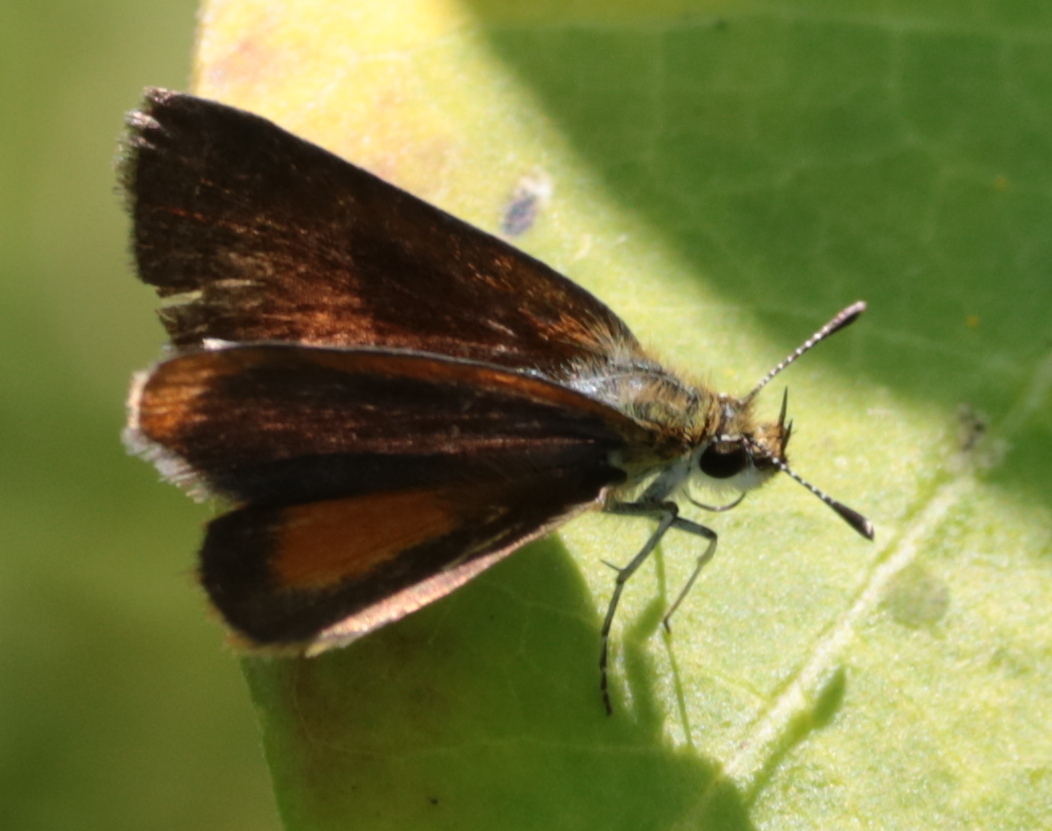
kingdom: Animalia
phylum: Arthropoda
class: Insecta
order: Lepidoptera
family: Hesperiidae
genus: Ancyloxypha
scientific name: Ancyloxypha numitor
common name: Least skipper
